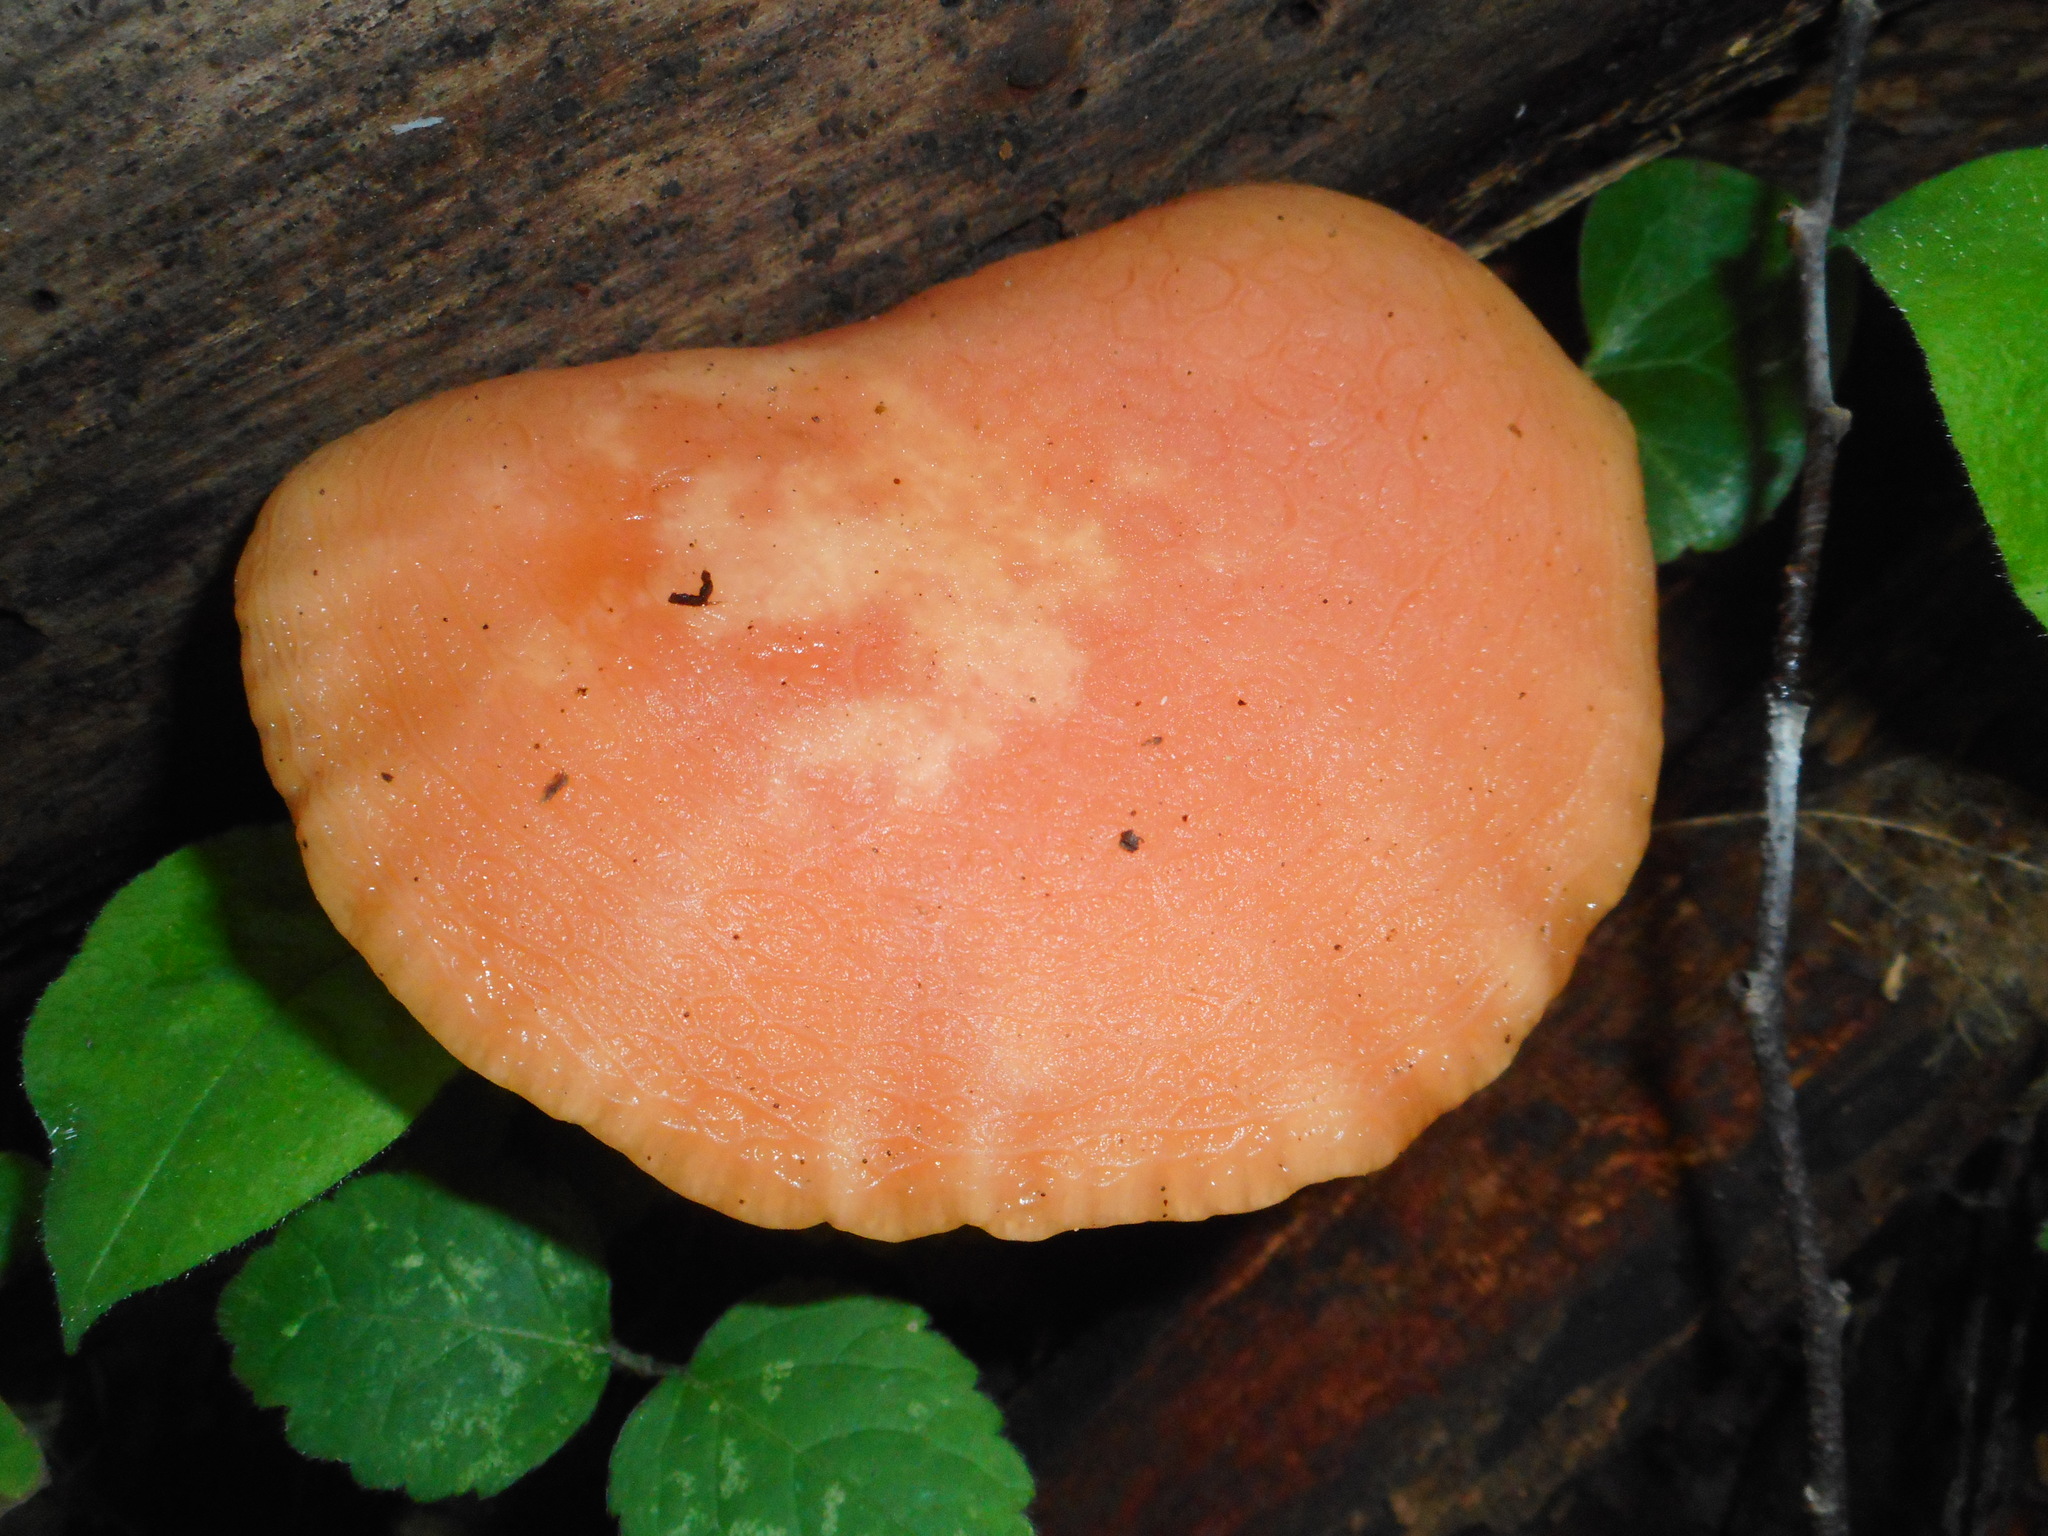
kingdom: Fungi
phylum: Basidiomycota
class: Agaricomycetes
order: Agaricales
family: Physalacriaceae
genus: Rhodotus
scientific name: Rhodotus palmatus
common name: Wrinkled peach
